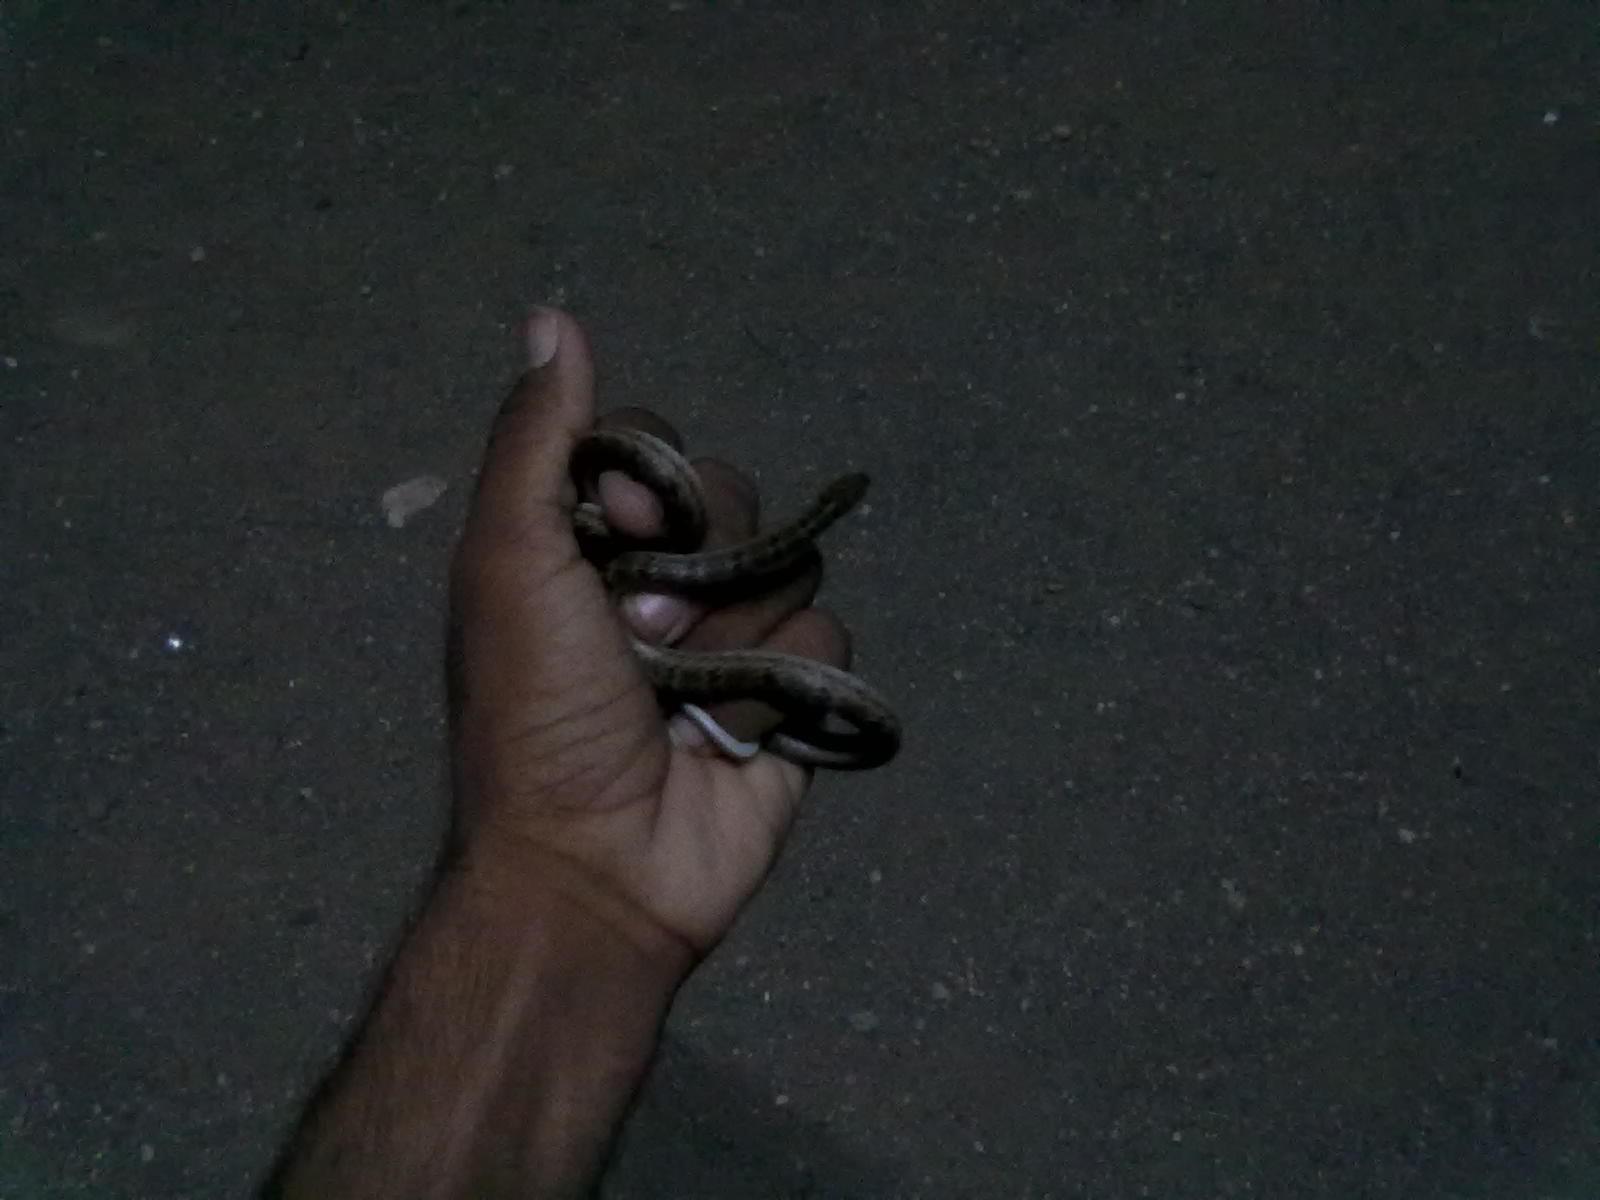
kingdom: Animalia
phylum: Chordata
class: Squamata
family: Colubridae
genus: Oligodon
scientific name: Oligodon taeniolatus
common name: Loos snake
